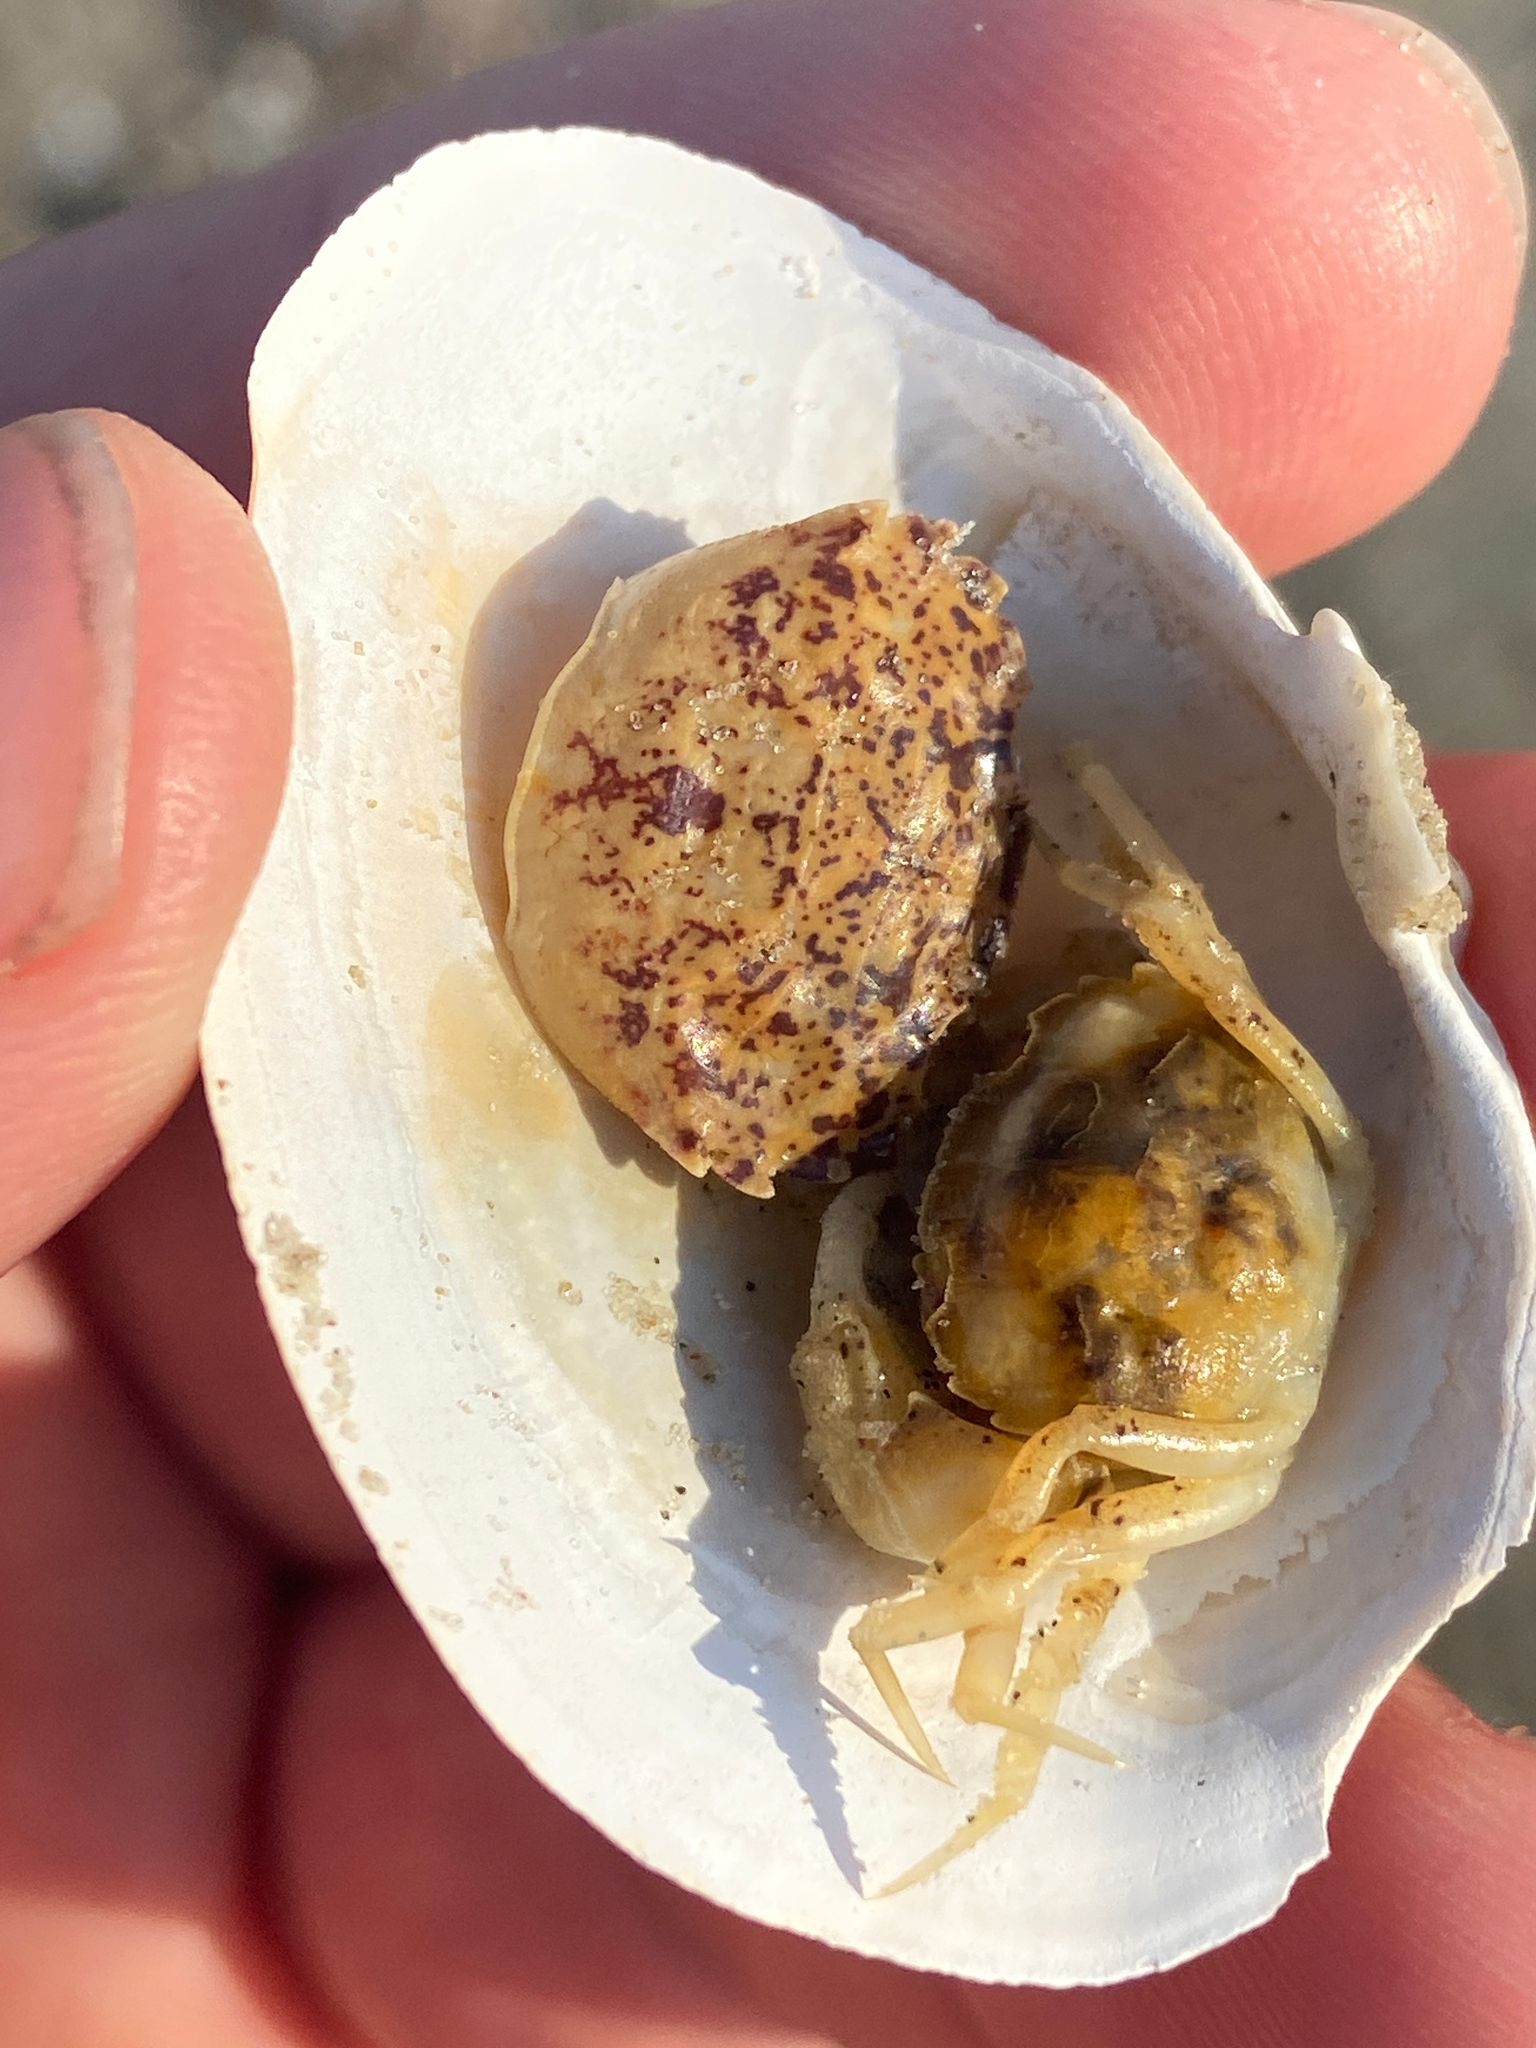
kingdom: Animalia
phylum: Arthropoda
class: Malacostraca
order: Decapoda
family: Panopeidae
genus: Rhithropanopeus
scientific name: Rhithropanopeus harrisii
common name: Dwarf crab
